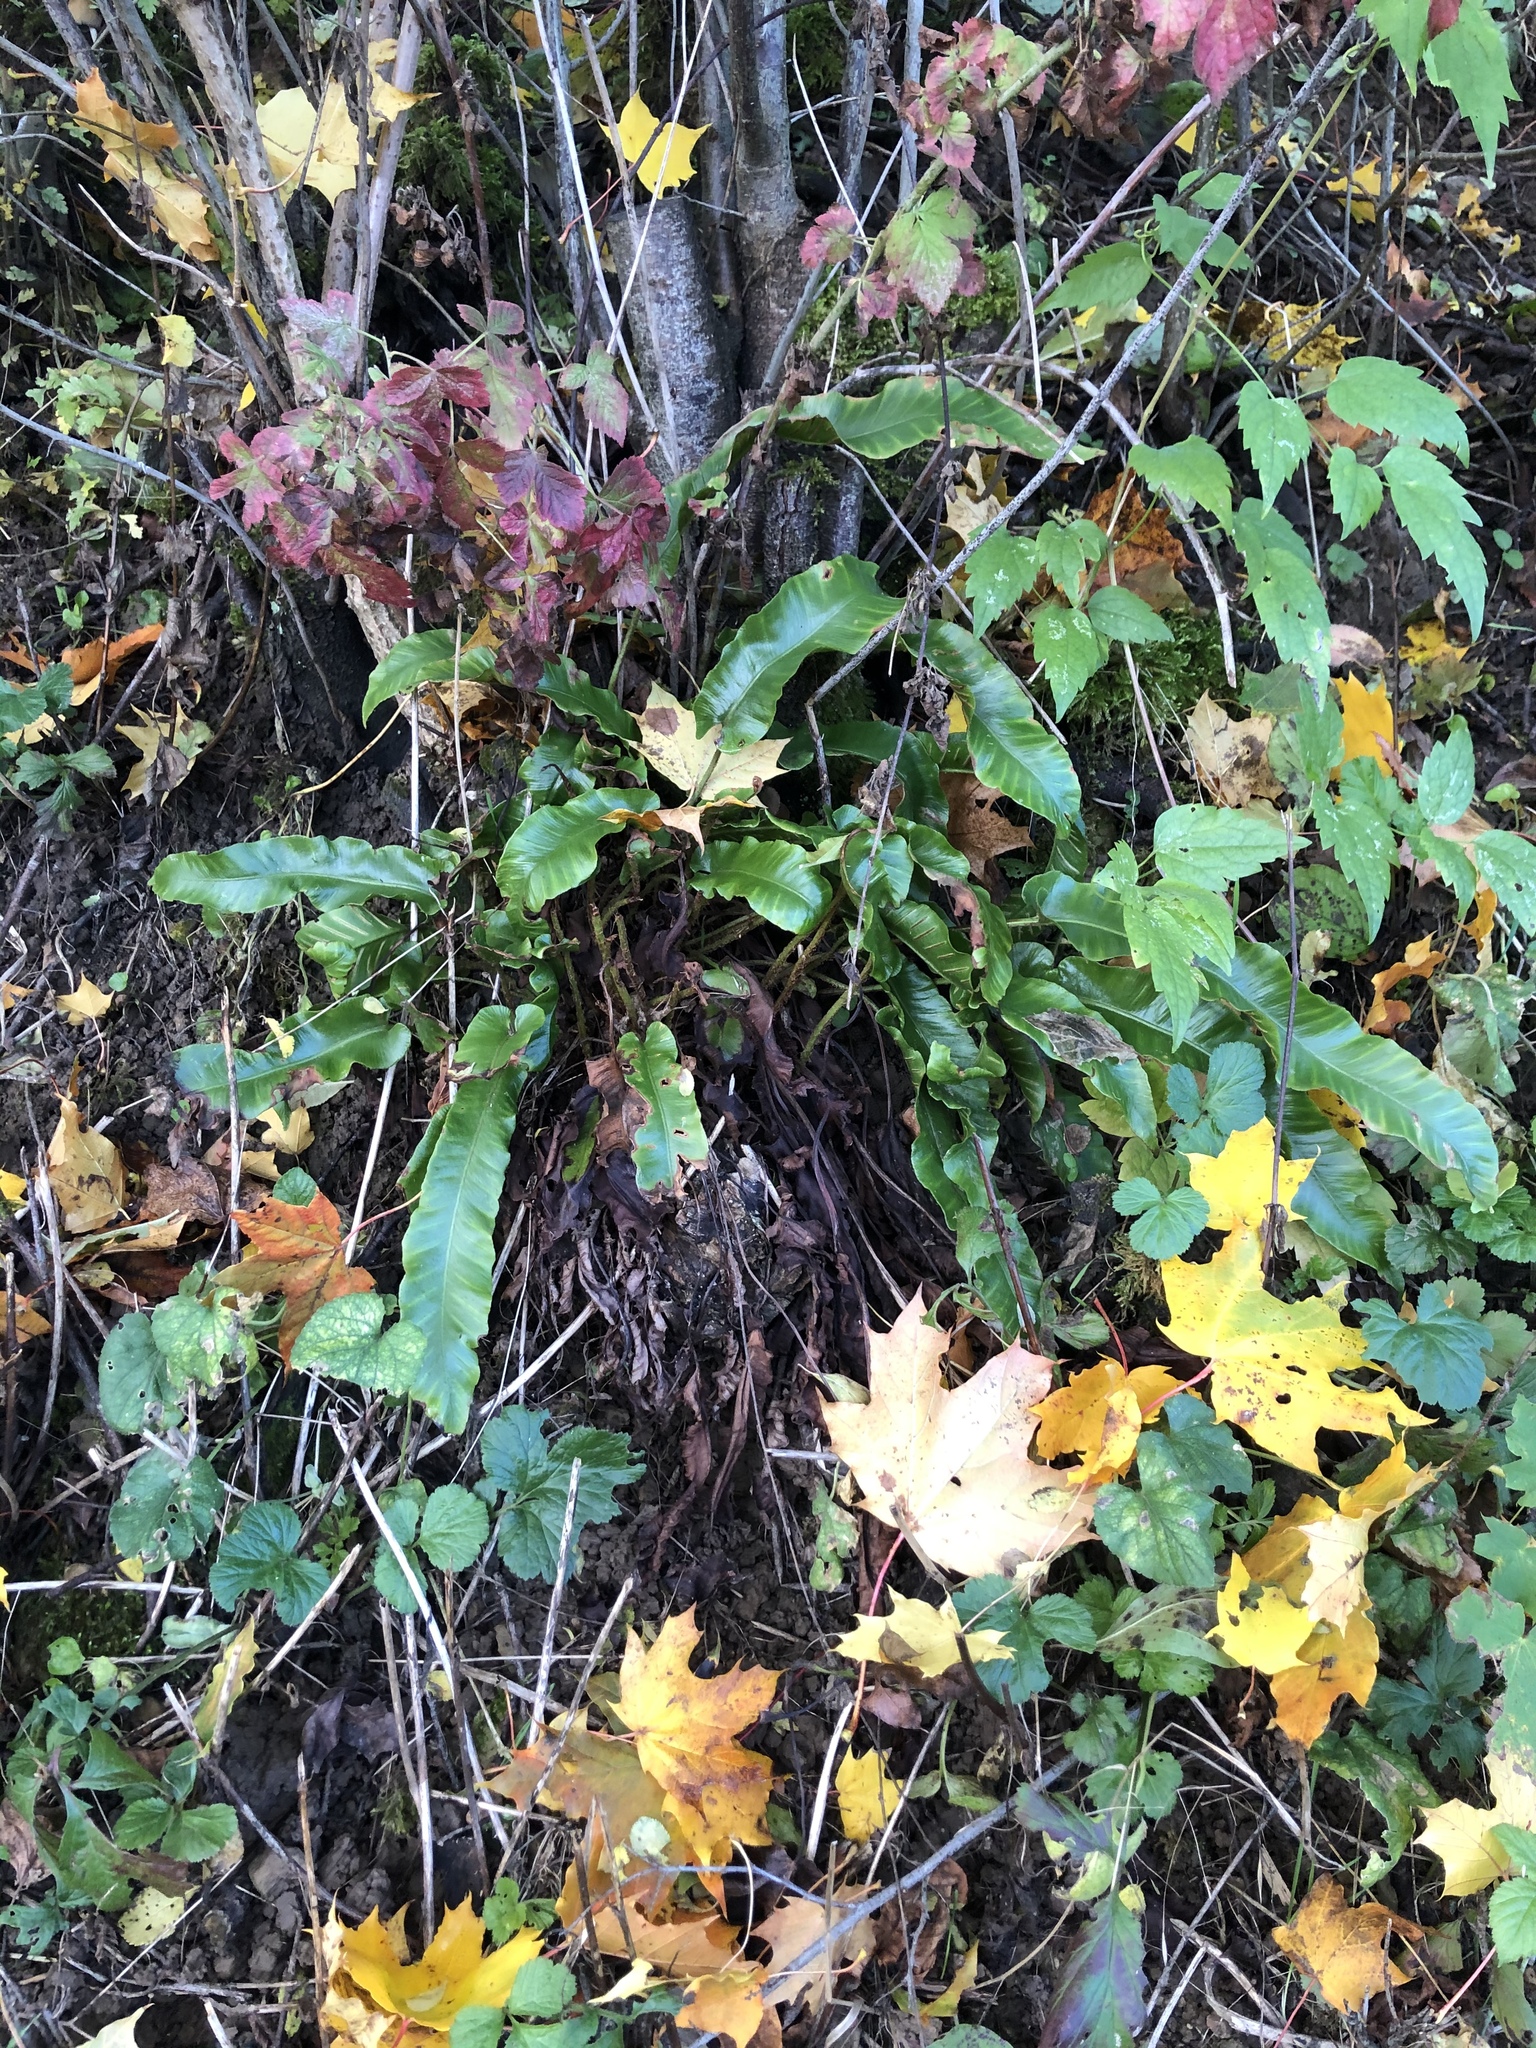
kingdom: Plantae
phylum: Tracheophyta
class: Polypodiopsida
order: Polypodiales
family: Aspleniaceae
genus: Asplenium
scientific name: Asplenium scolopendrium
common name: Hart's-tongue fern
